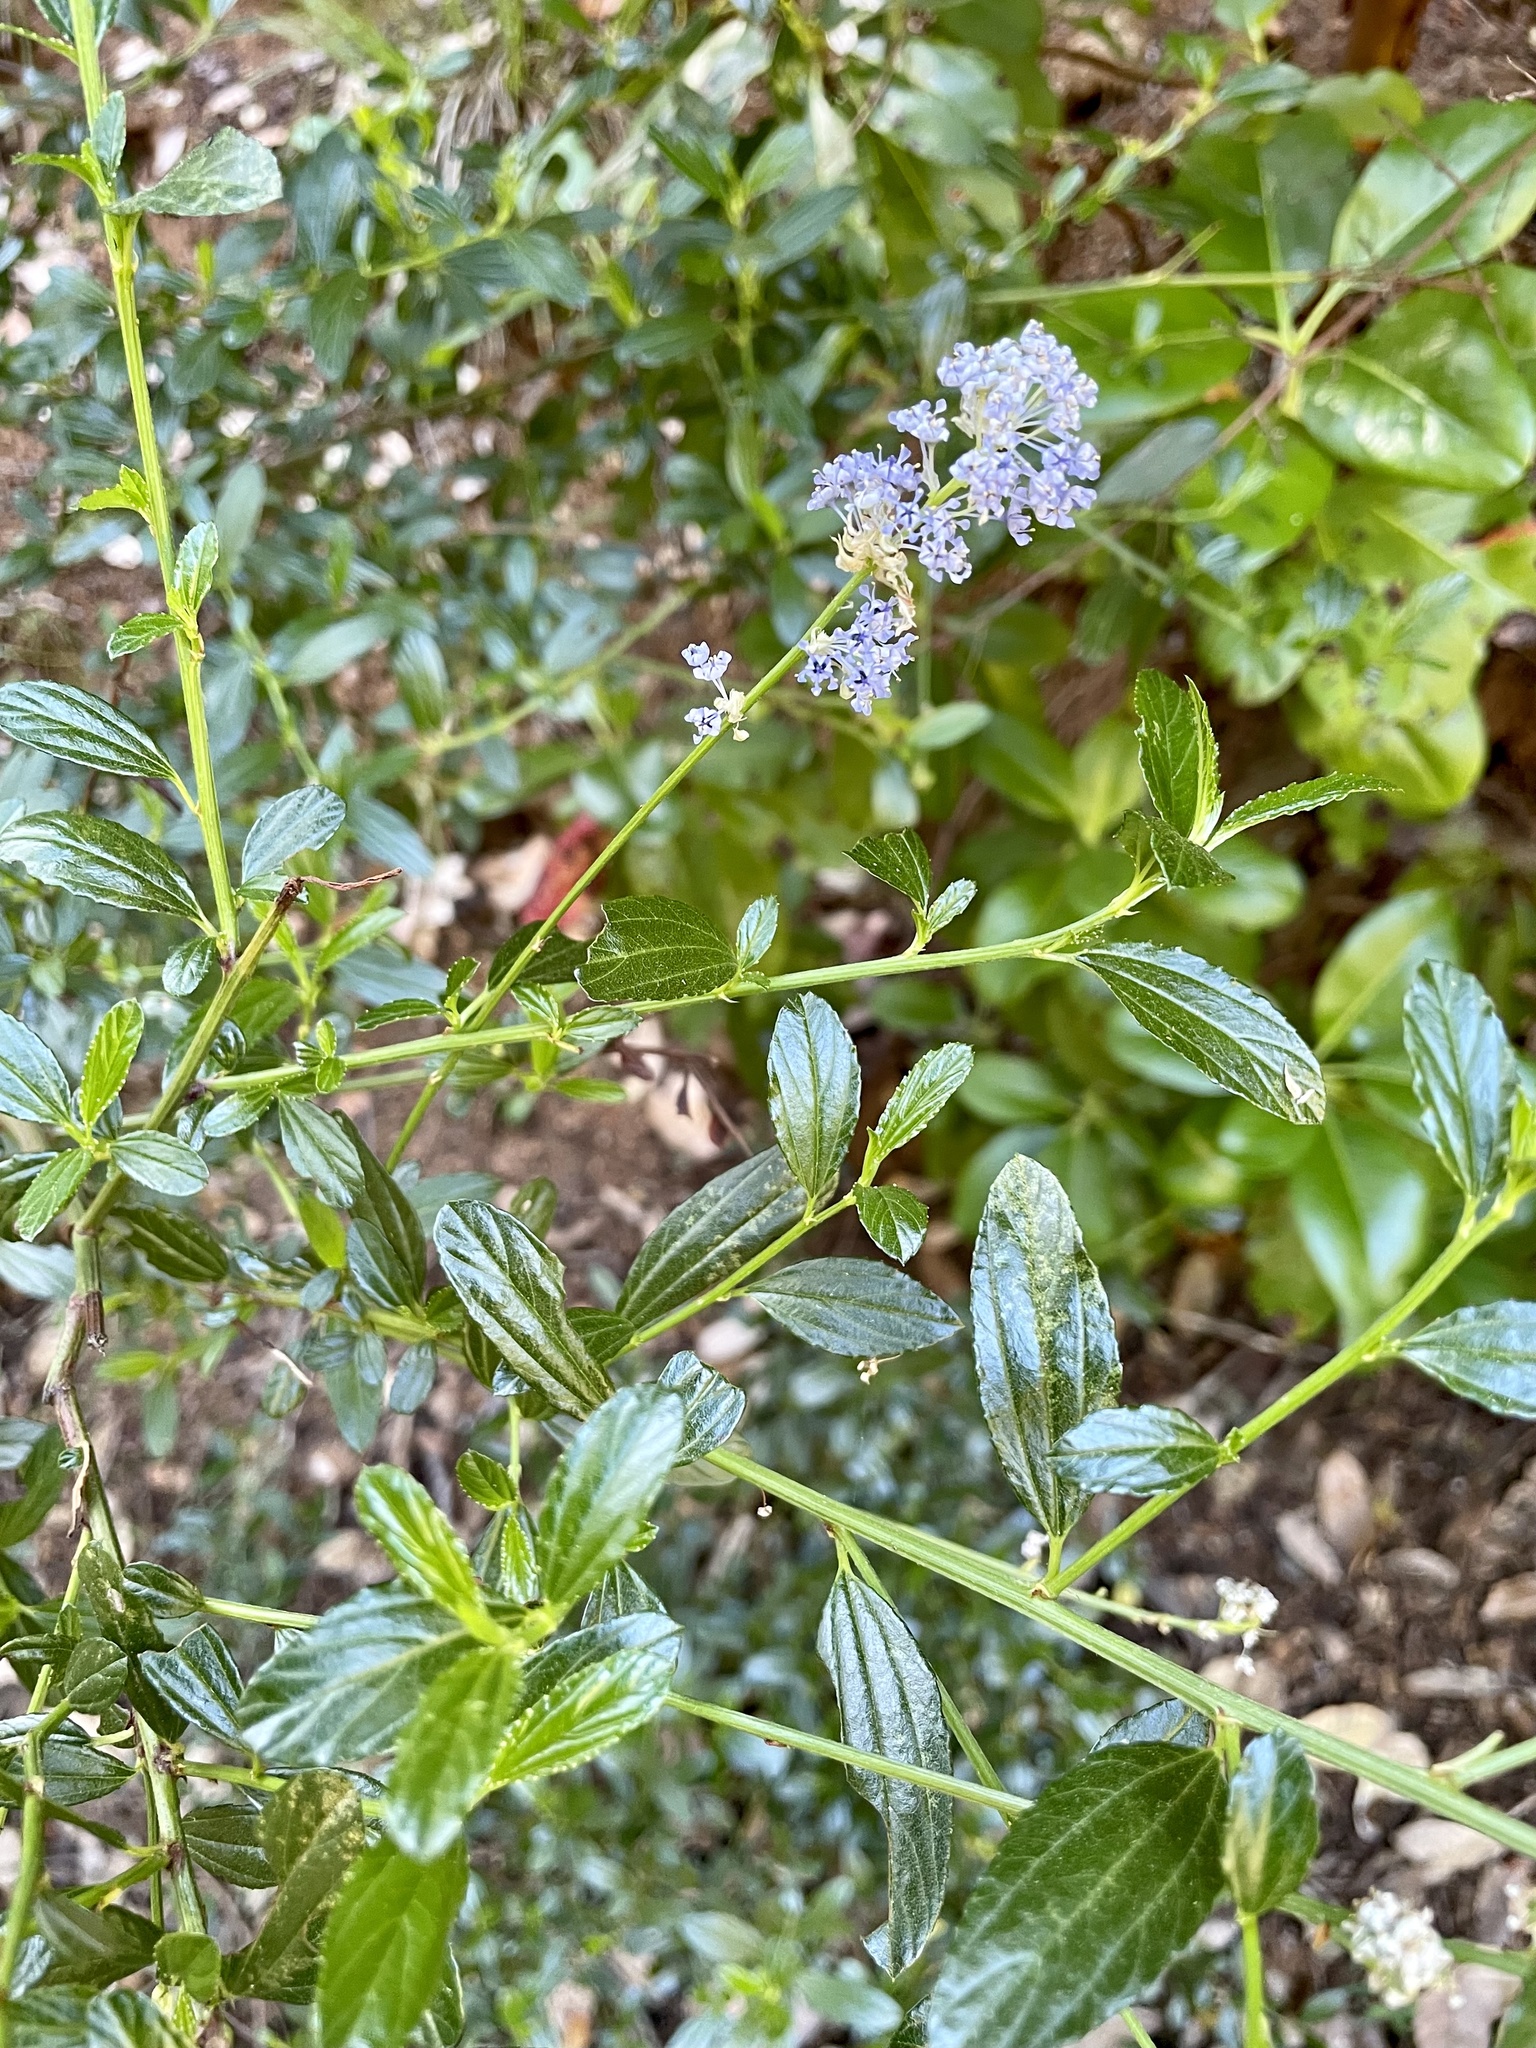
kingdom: Plantae
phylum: Tracheophyta
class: Magnoliopsida
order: Rosales
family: Rhamnaceae
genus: Ceanothus
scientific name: Ceanothus thyrsiflorus
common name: California-lilac
